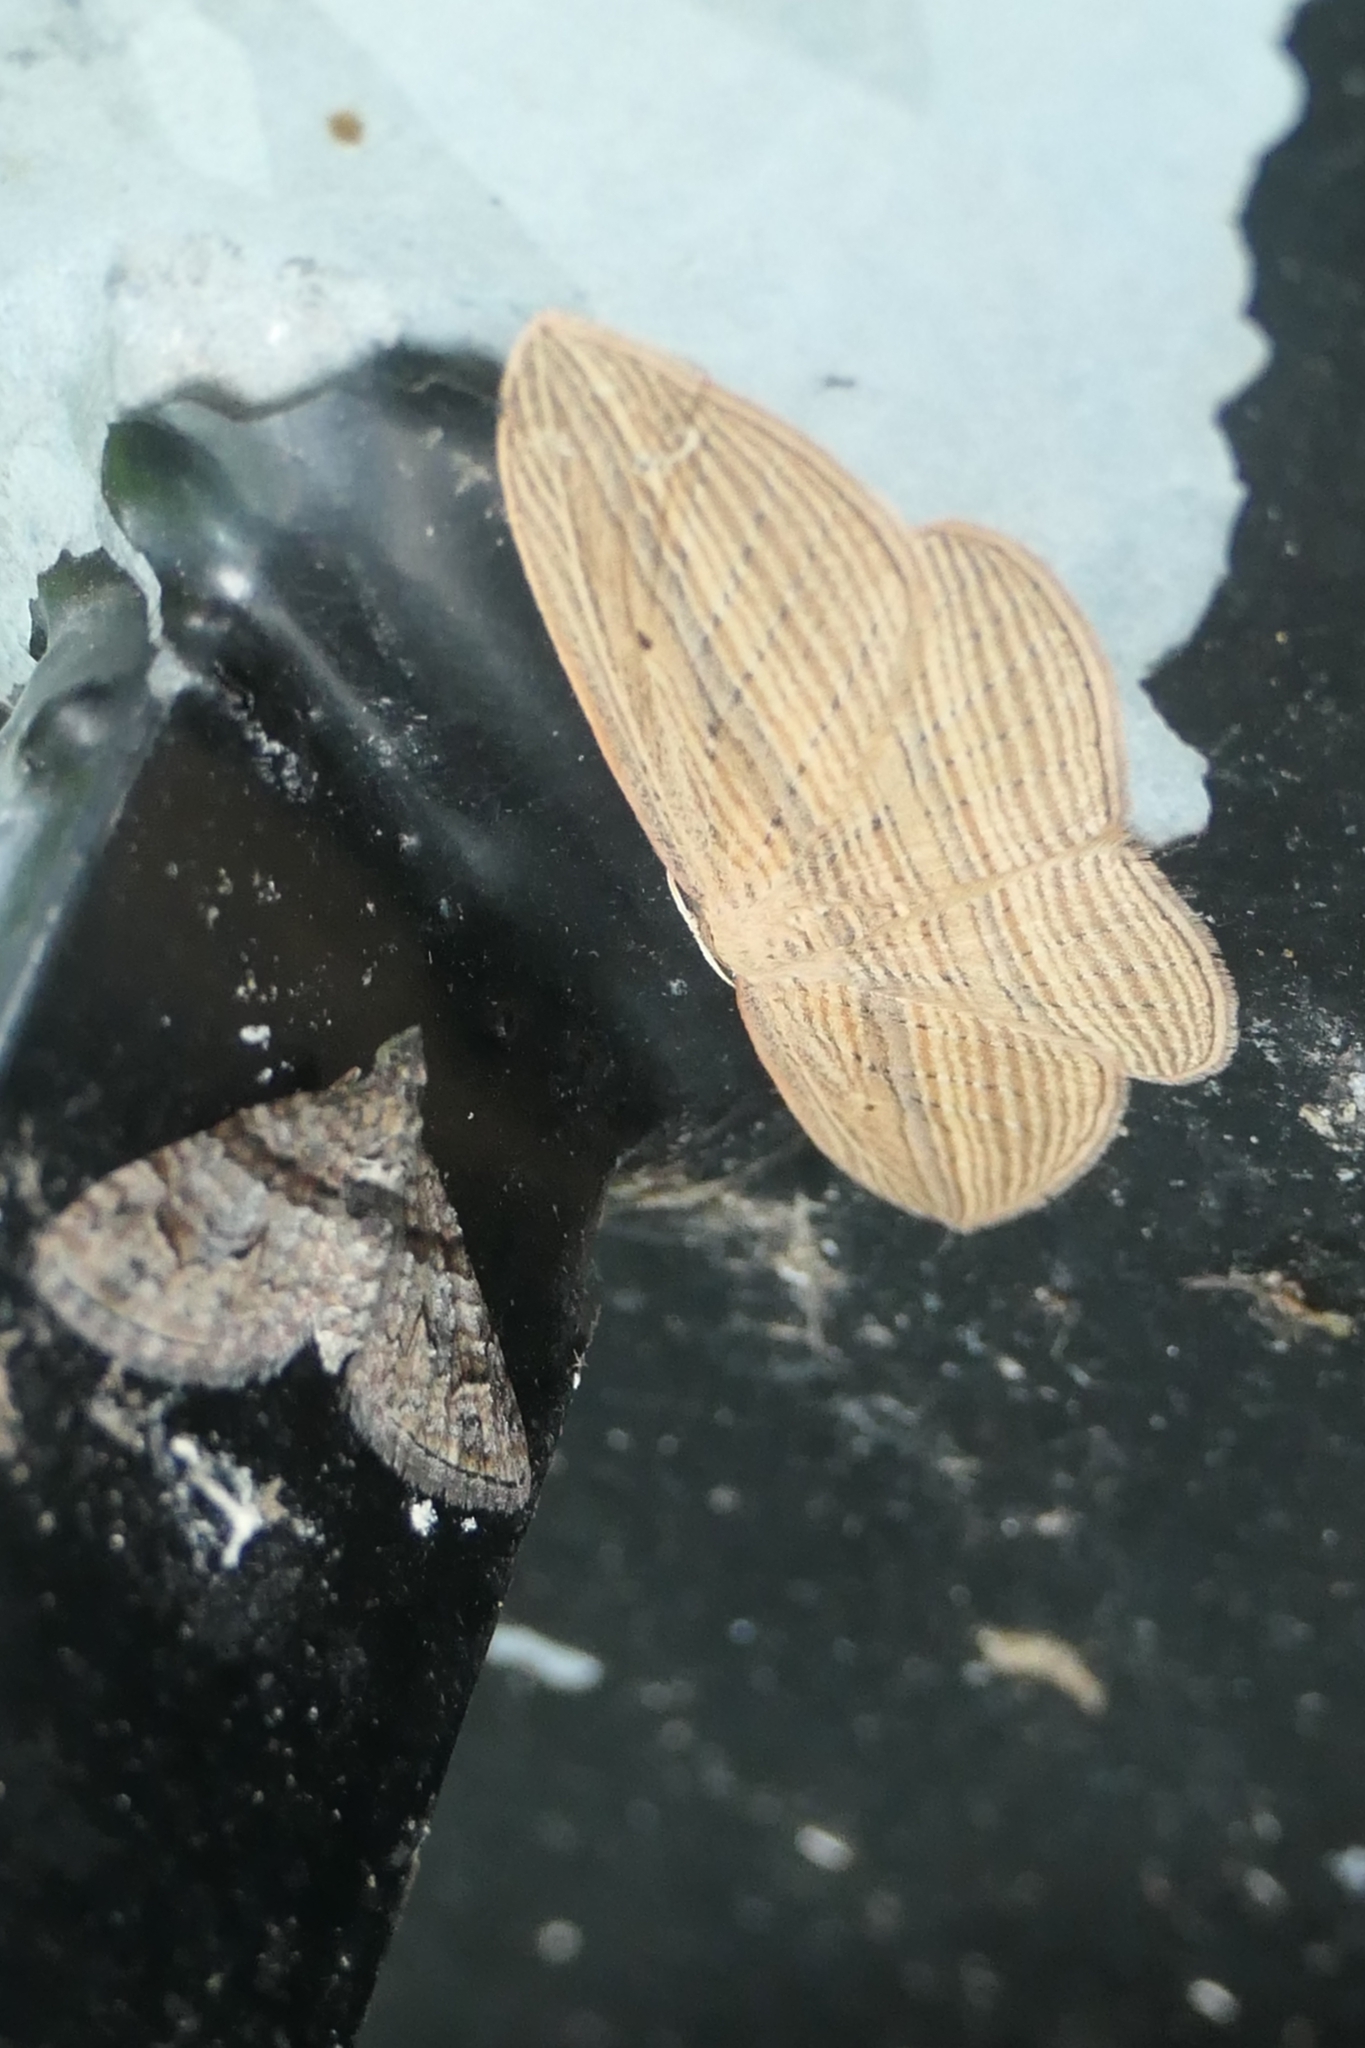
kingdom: Animalia
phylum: Arthropoda
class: Insecta
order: Lepidoptera
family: Geometridae
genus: Epiphryne
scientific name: Epiphryne verriculata
